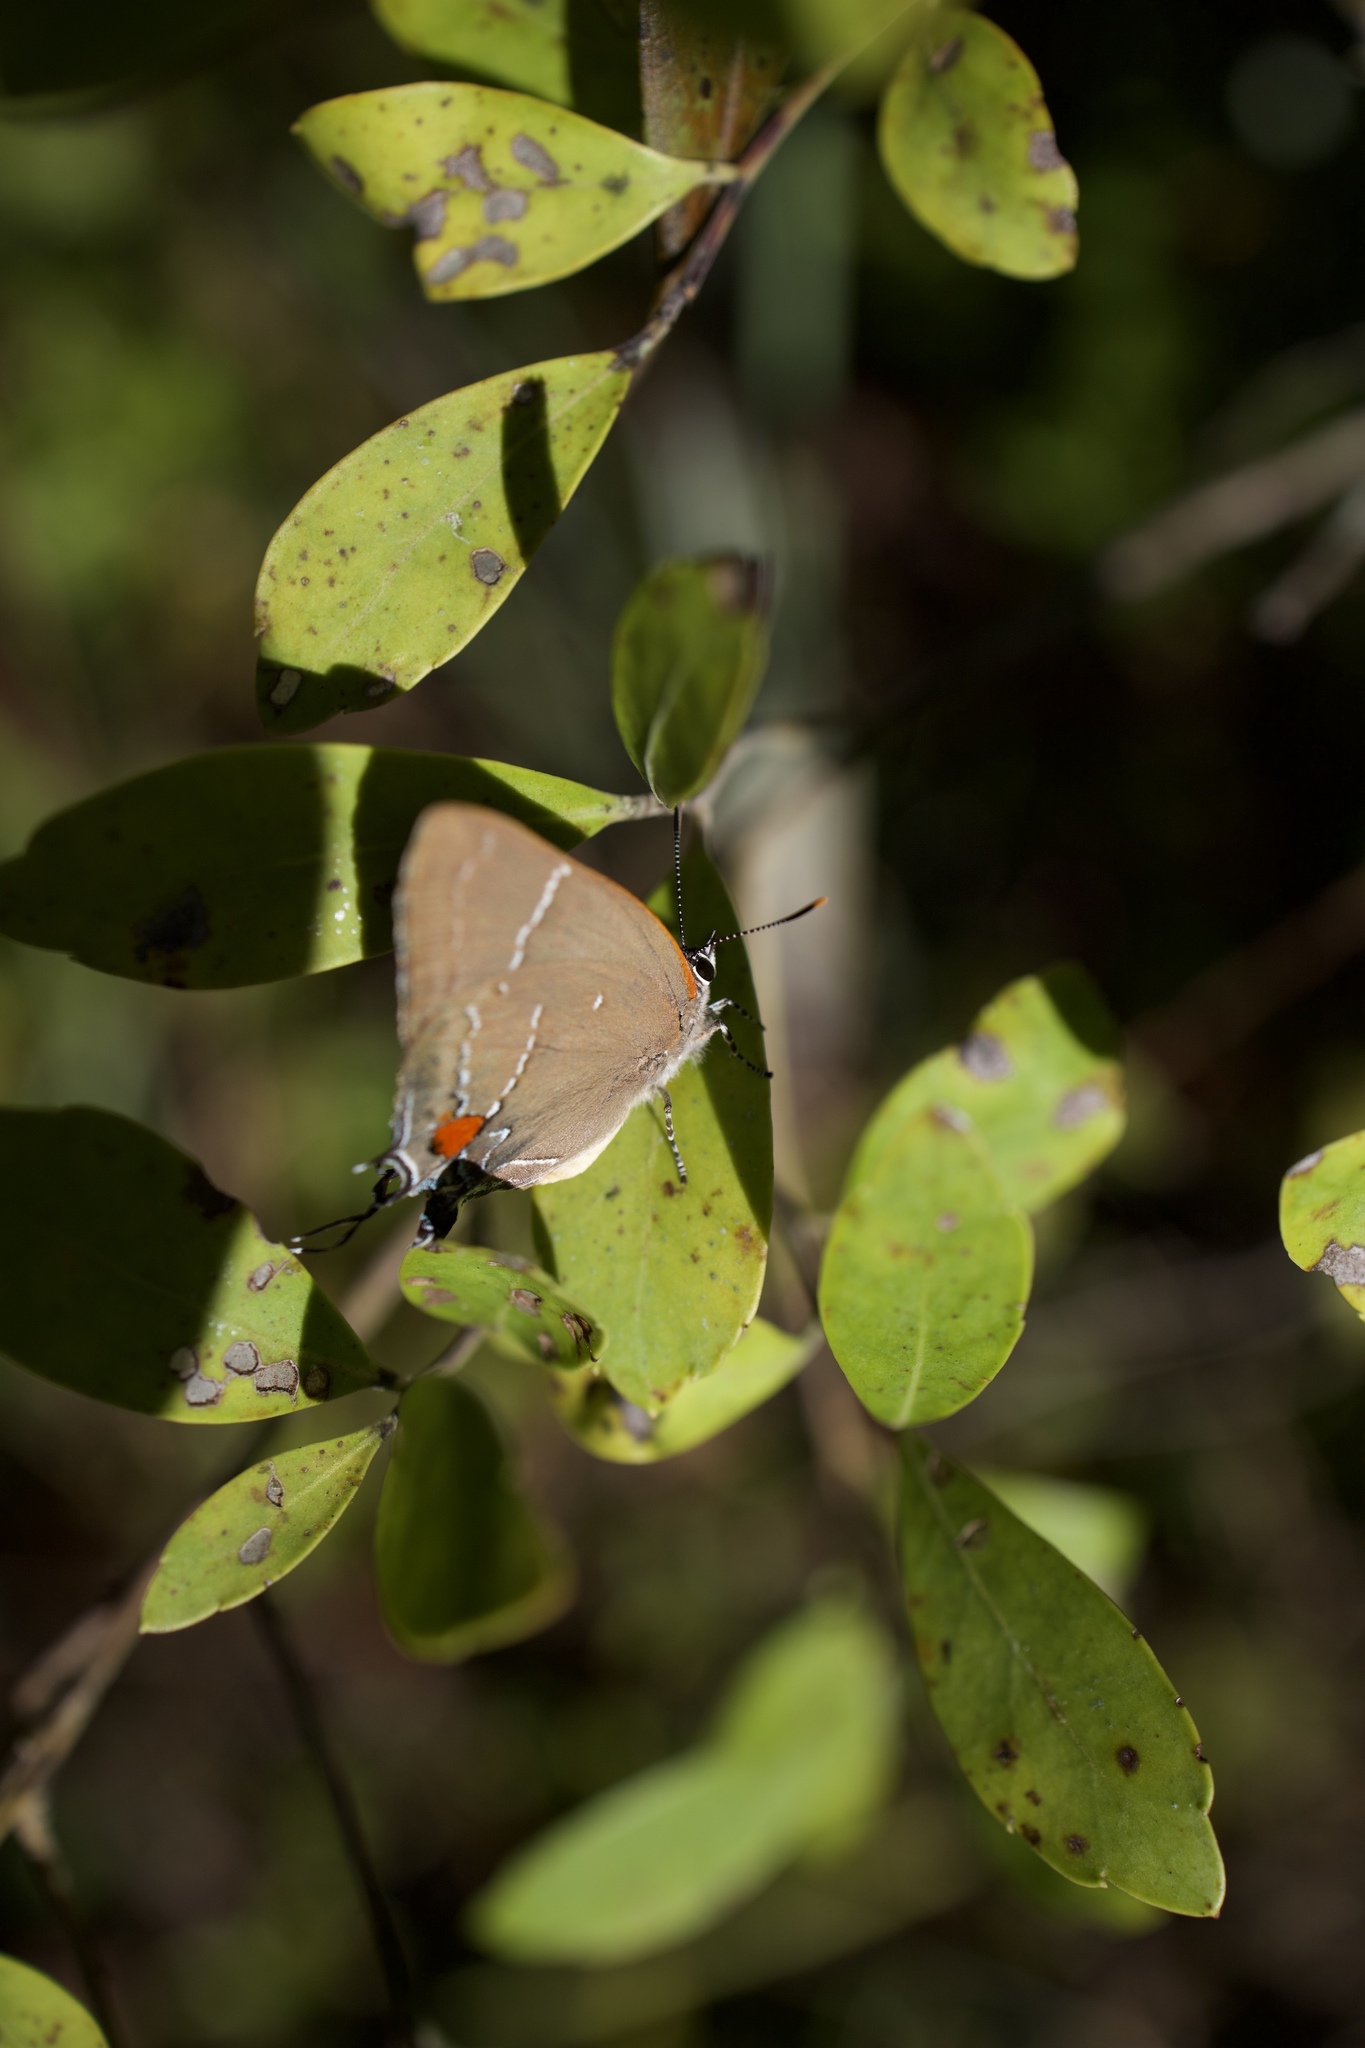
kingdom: Animalia
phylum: Arthropoda
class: Insecta
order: Lepidoptera
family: Lycaenidae
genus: Parrhasius
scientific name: Parrhasius m-album
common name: White m hairstreak
